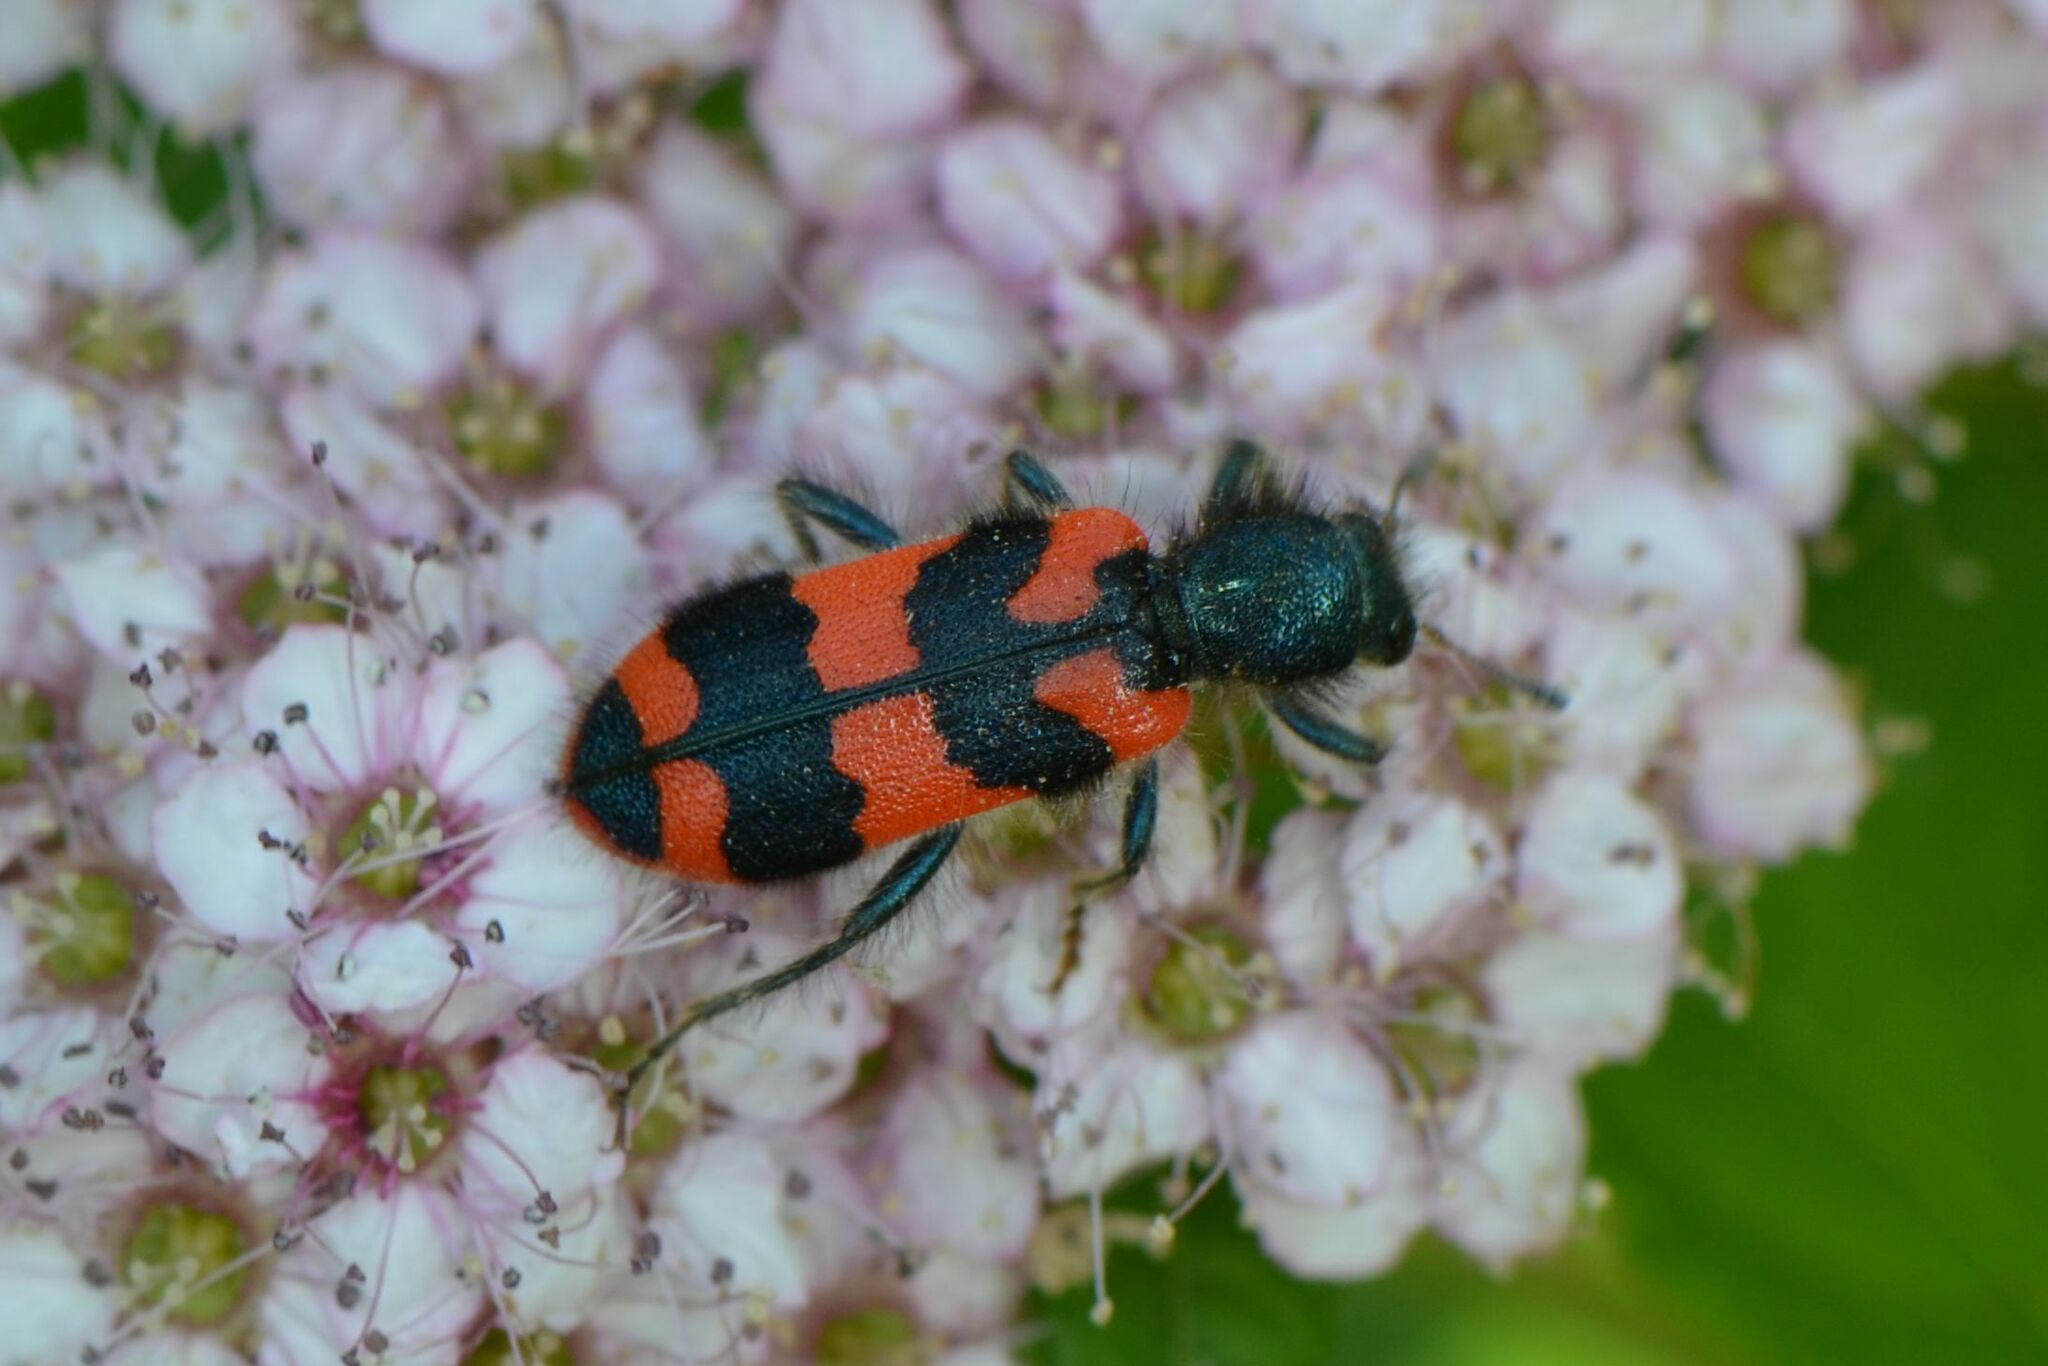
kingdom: Animalia
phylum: Arthropoda
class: Insecta
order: Coleoptera
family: Cleridae
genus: Trichodes
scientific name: Trichodes alvearius
